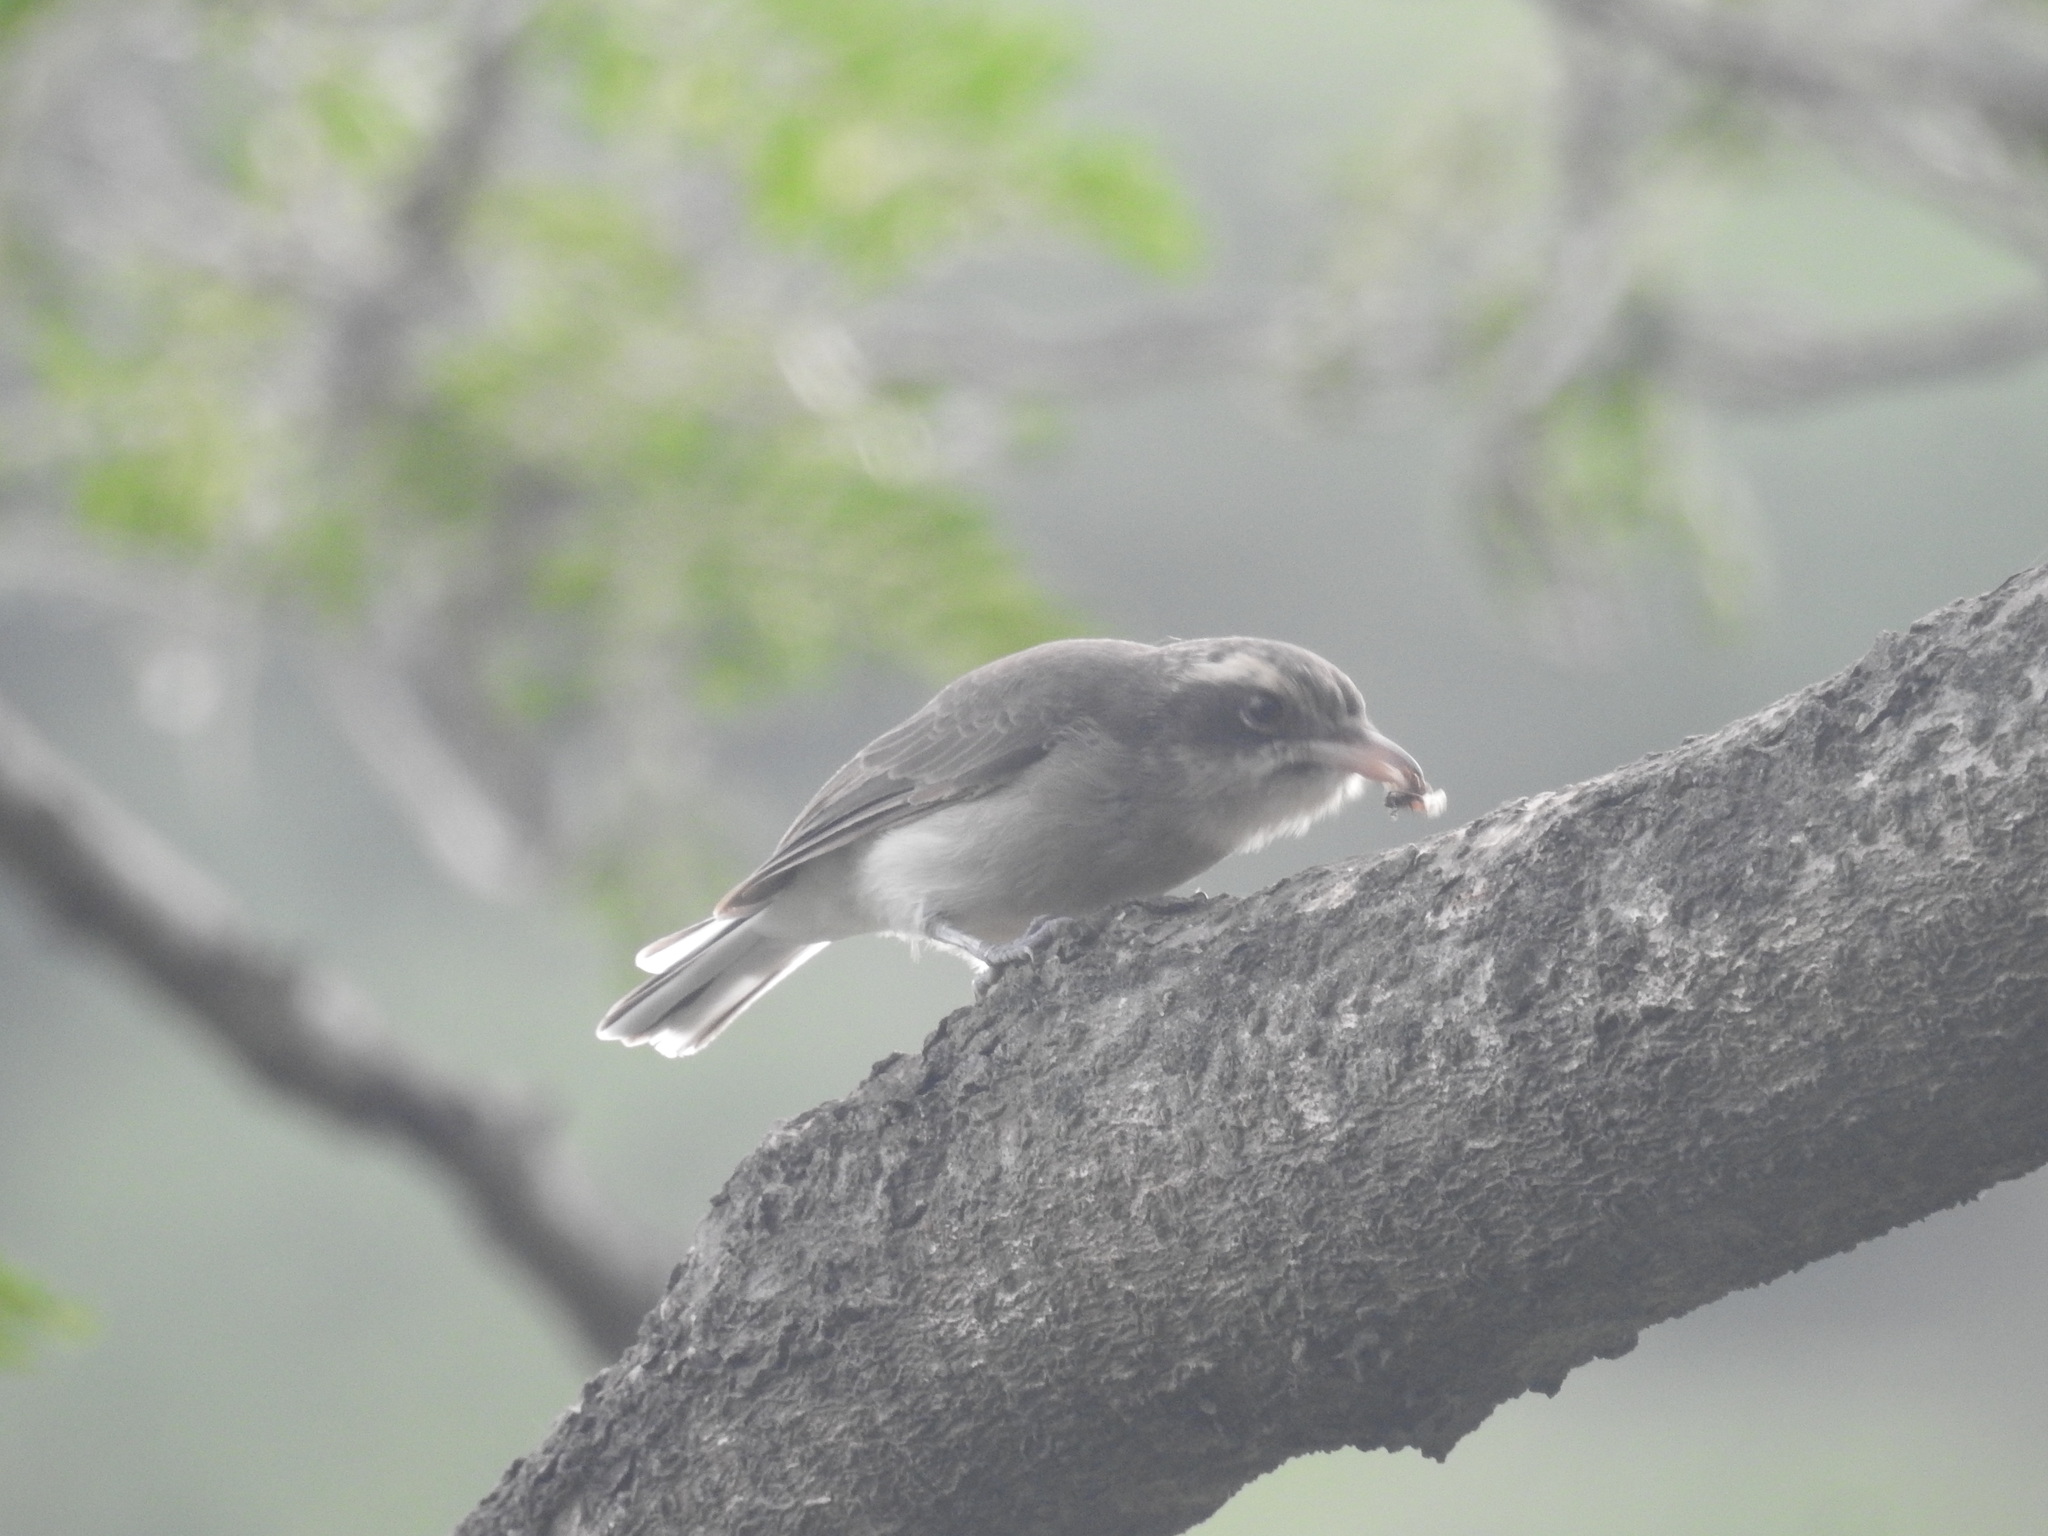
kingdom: Animalia
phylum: Chordata
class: Aves
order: Passeriformes
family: Tephrodornithidae
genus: Tephrodornis
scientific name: Tephrodornis pondicerianus
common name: Common woodshrike
